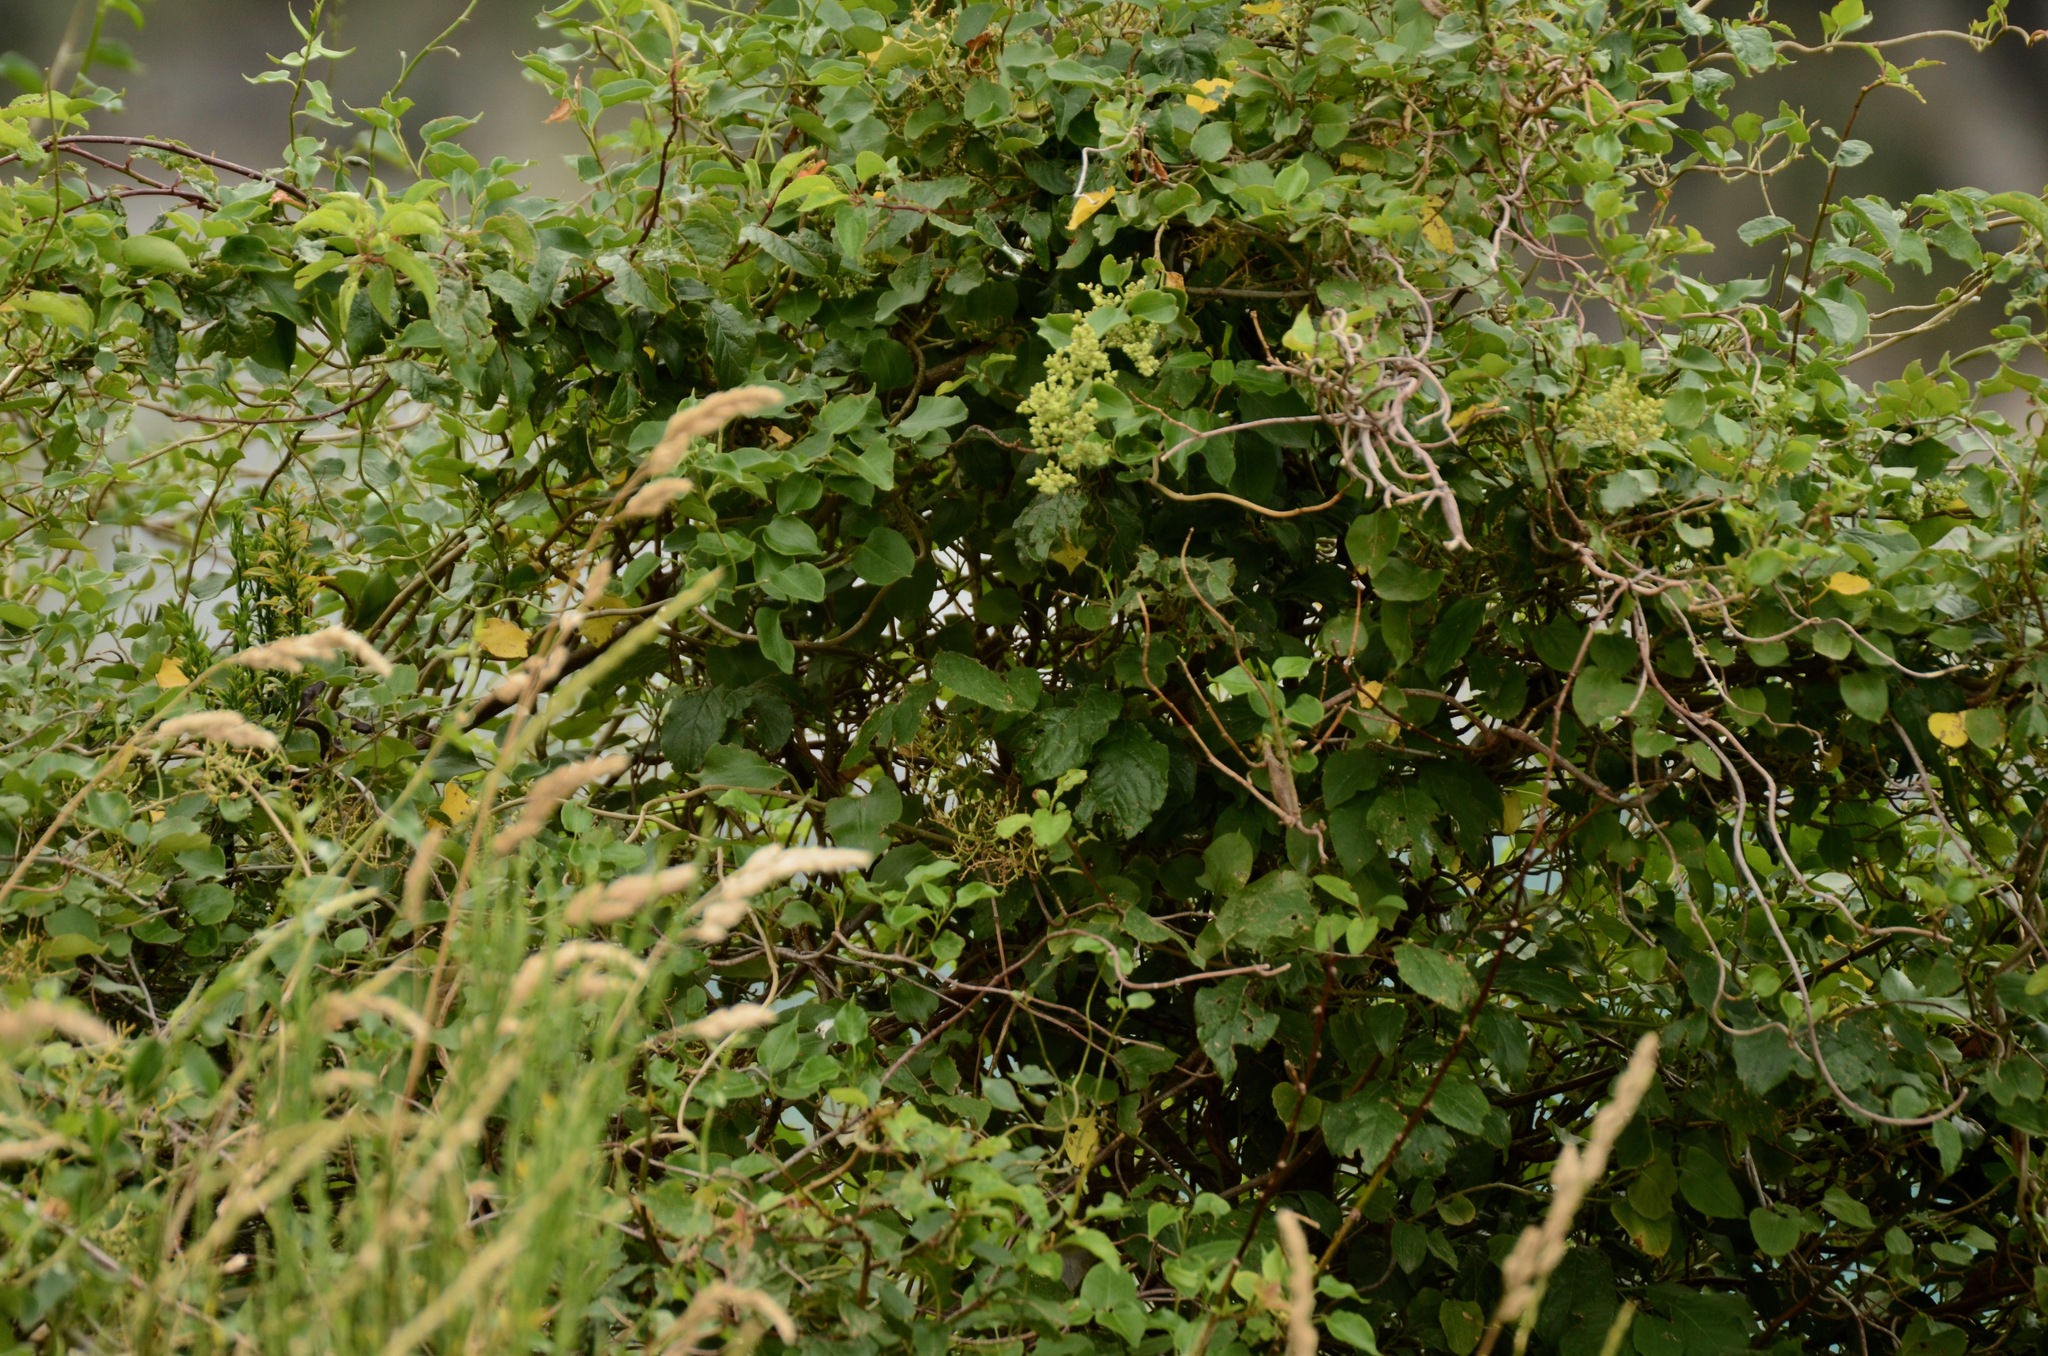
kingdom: Plantae
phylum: Tracheophyta
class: Magnoliopsida
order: Caryophyllales
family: Polygonaceae
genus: Muehlenbeckia
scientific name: Muehlenbeckia australis
